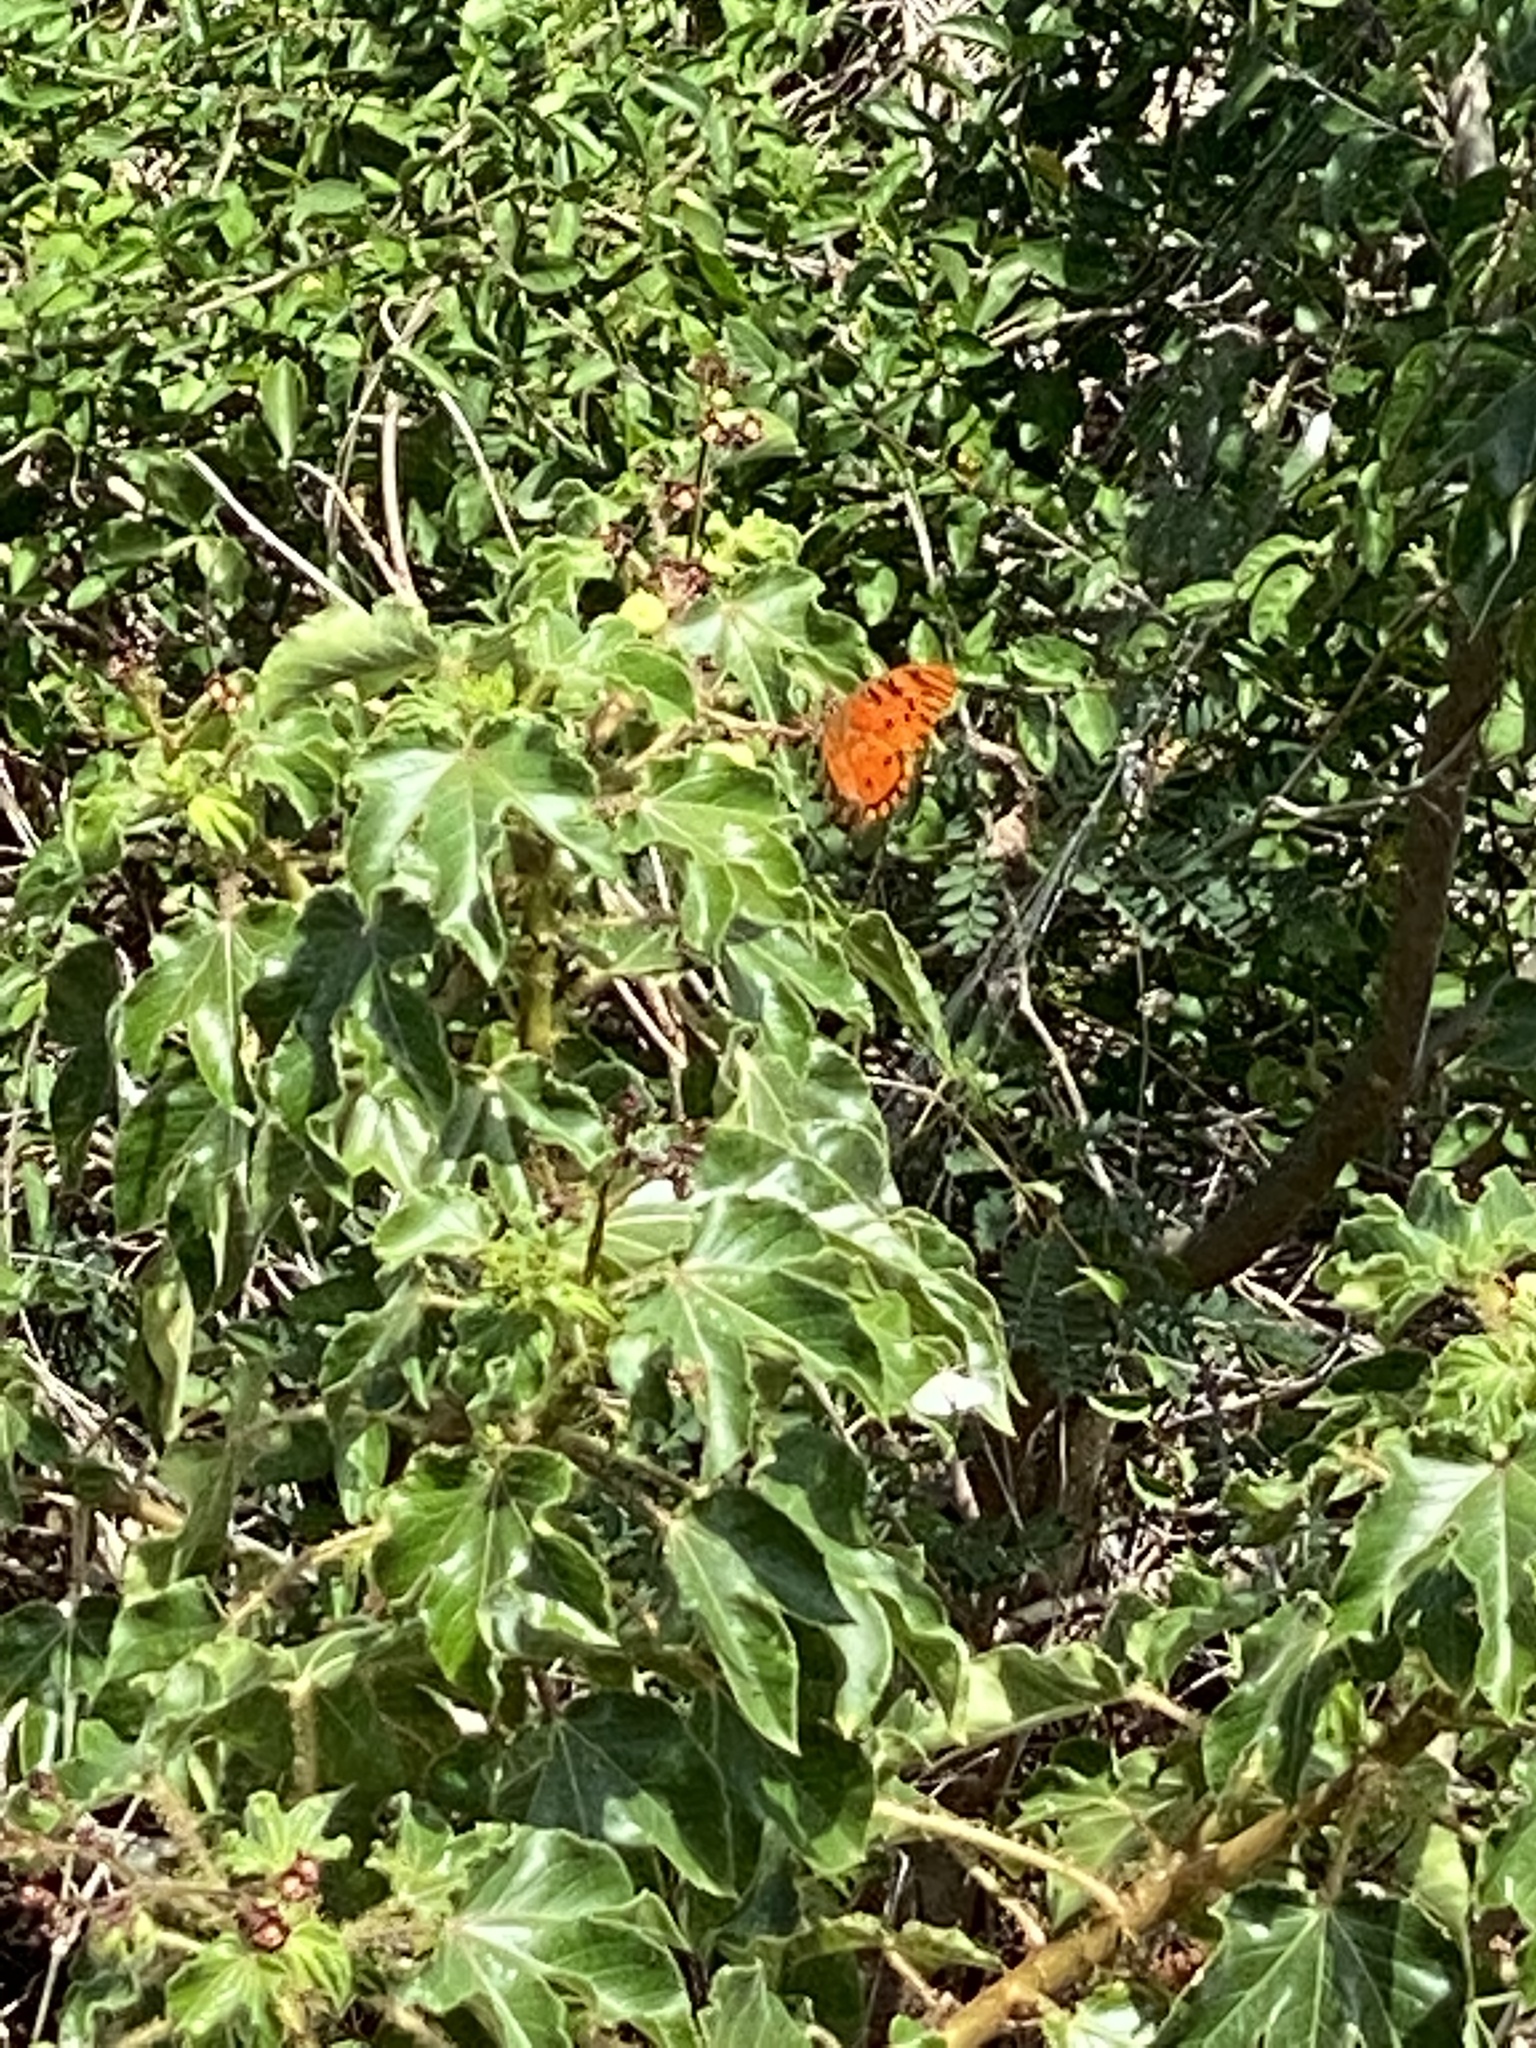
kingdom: Animalia
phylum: Arthropoda
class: Insecta
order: Lepidoptera
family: Nymphalidae
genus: Dione
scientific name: Dione vanillae
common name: Gulf fritillary
